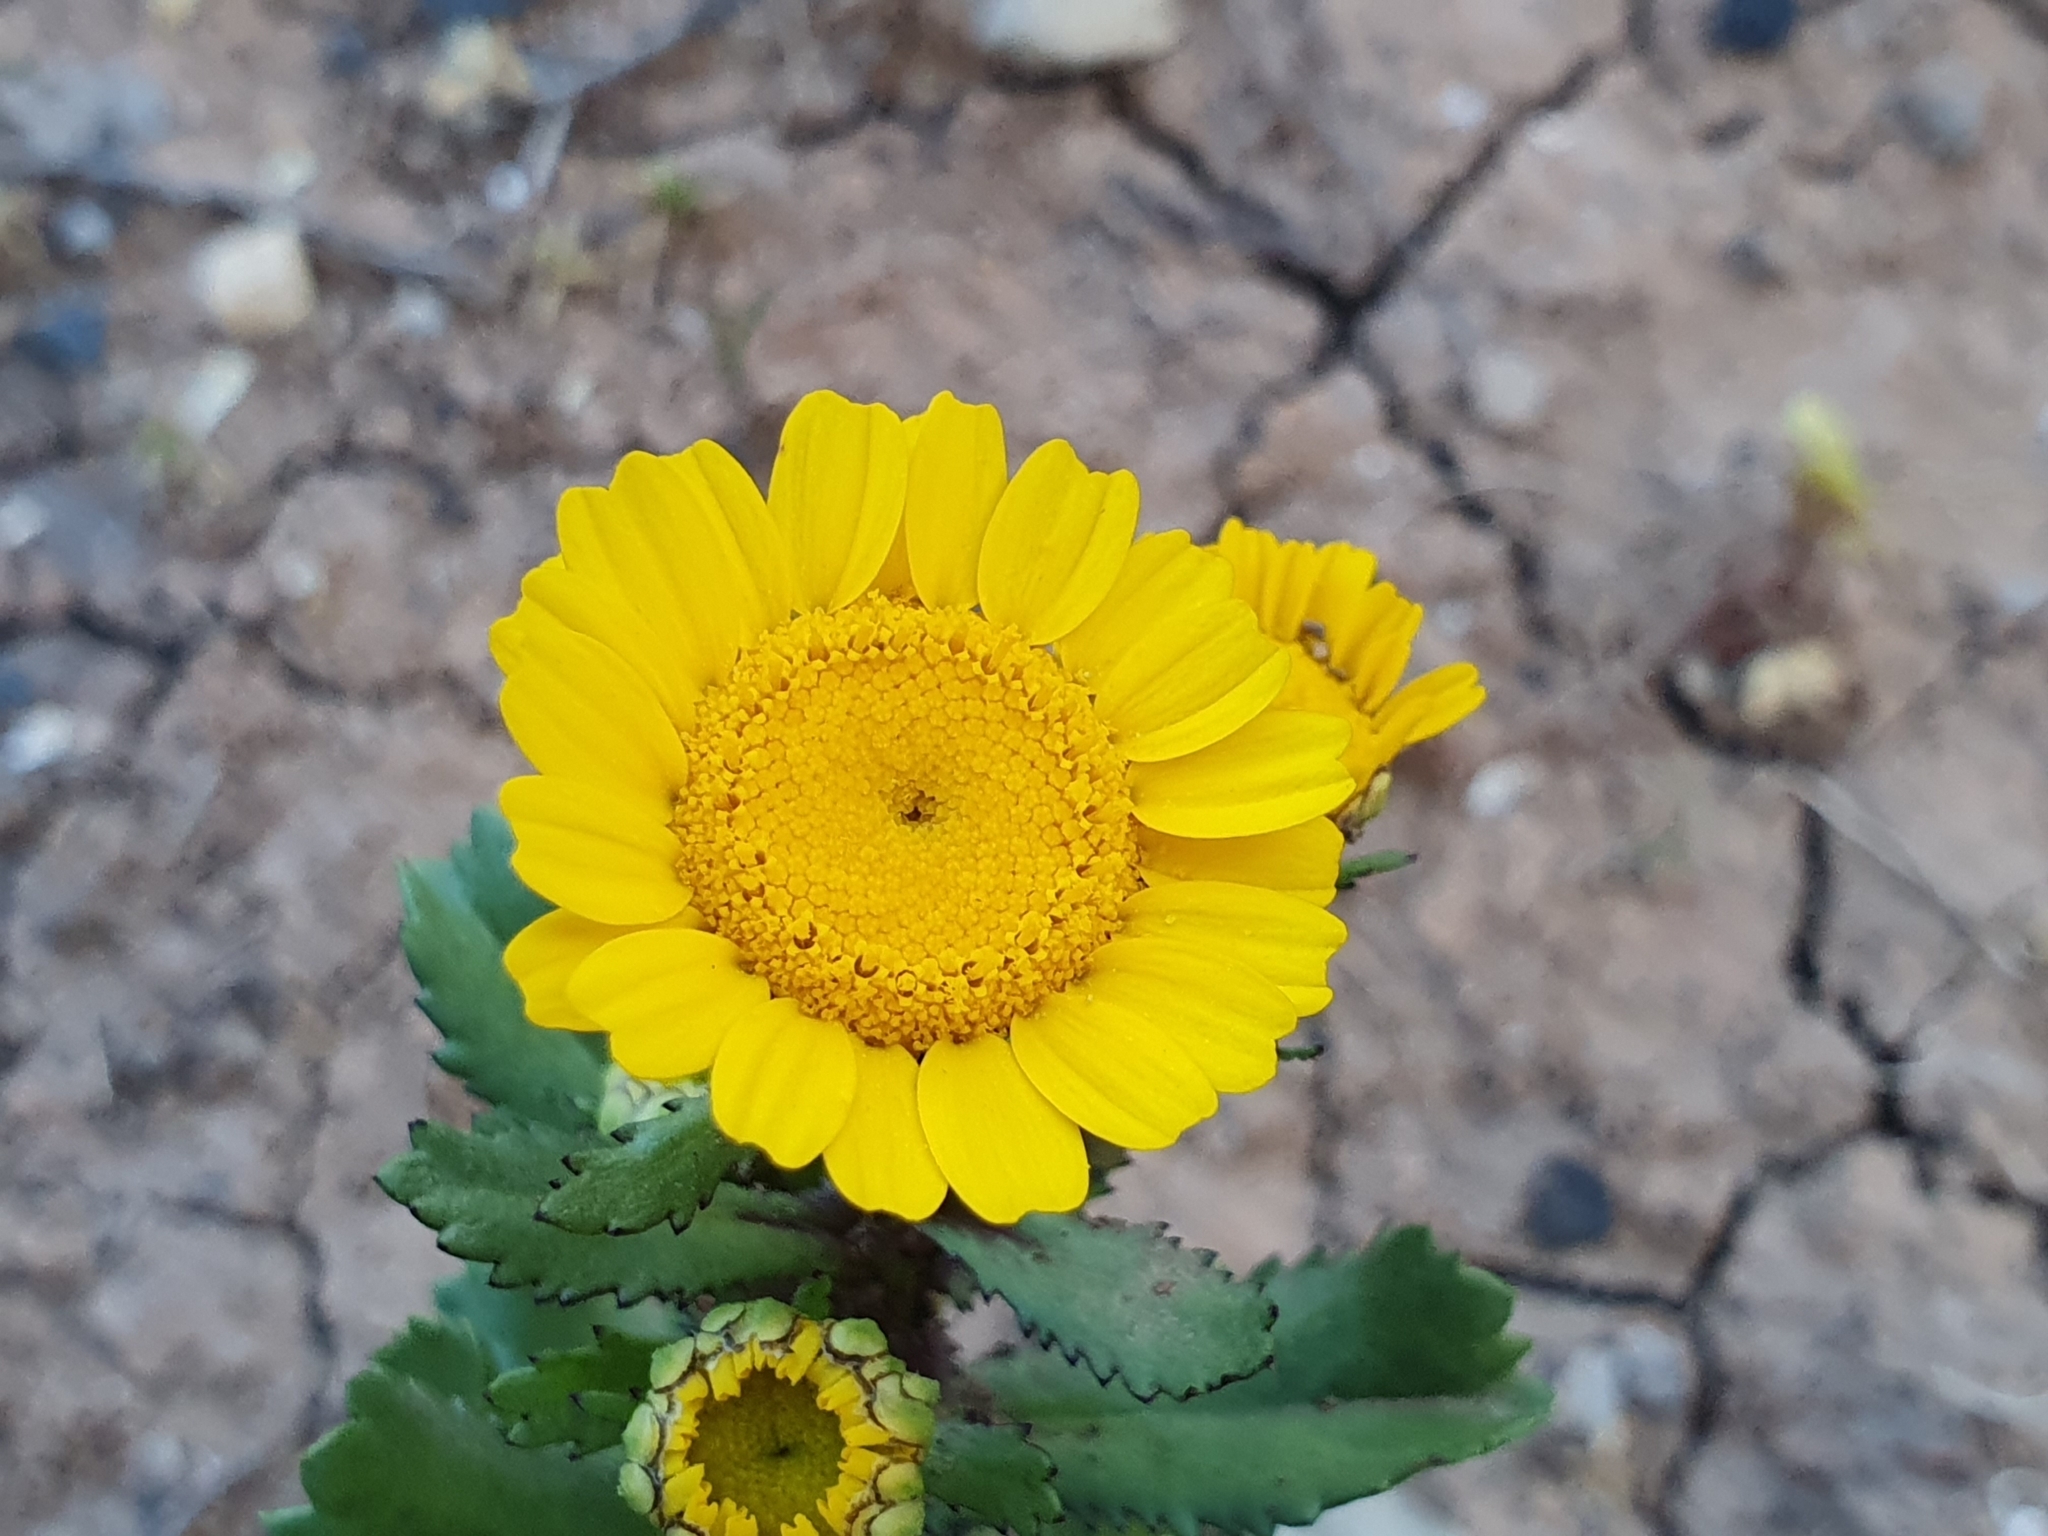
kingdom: Plantae
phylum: Tracheophyta
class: Magnoliopsida
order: Asterales
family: Asteraceae
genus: Coleostephus
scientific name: Coleostephus myconis
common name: Mediterranean marigold
